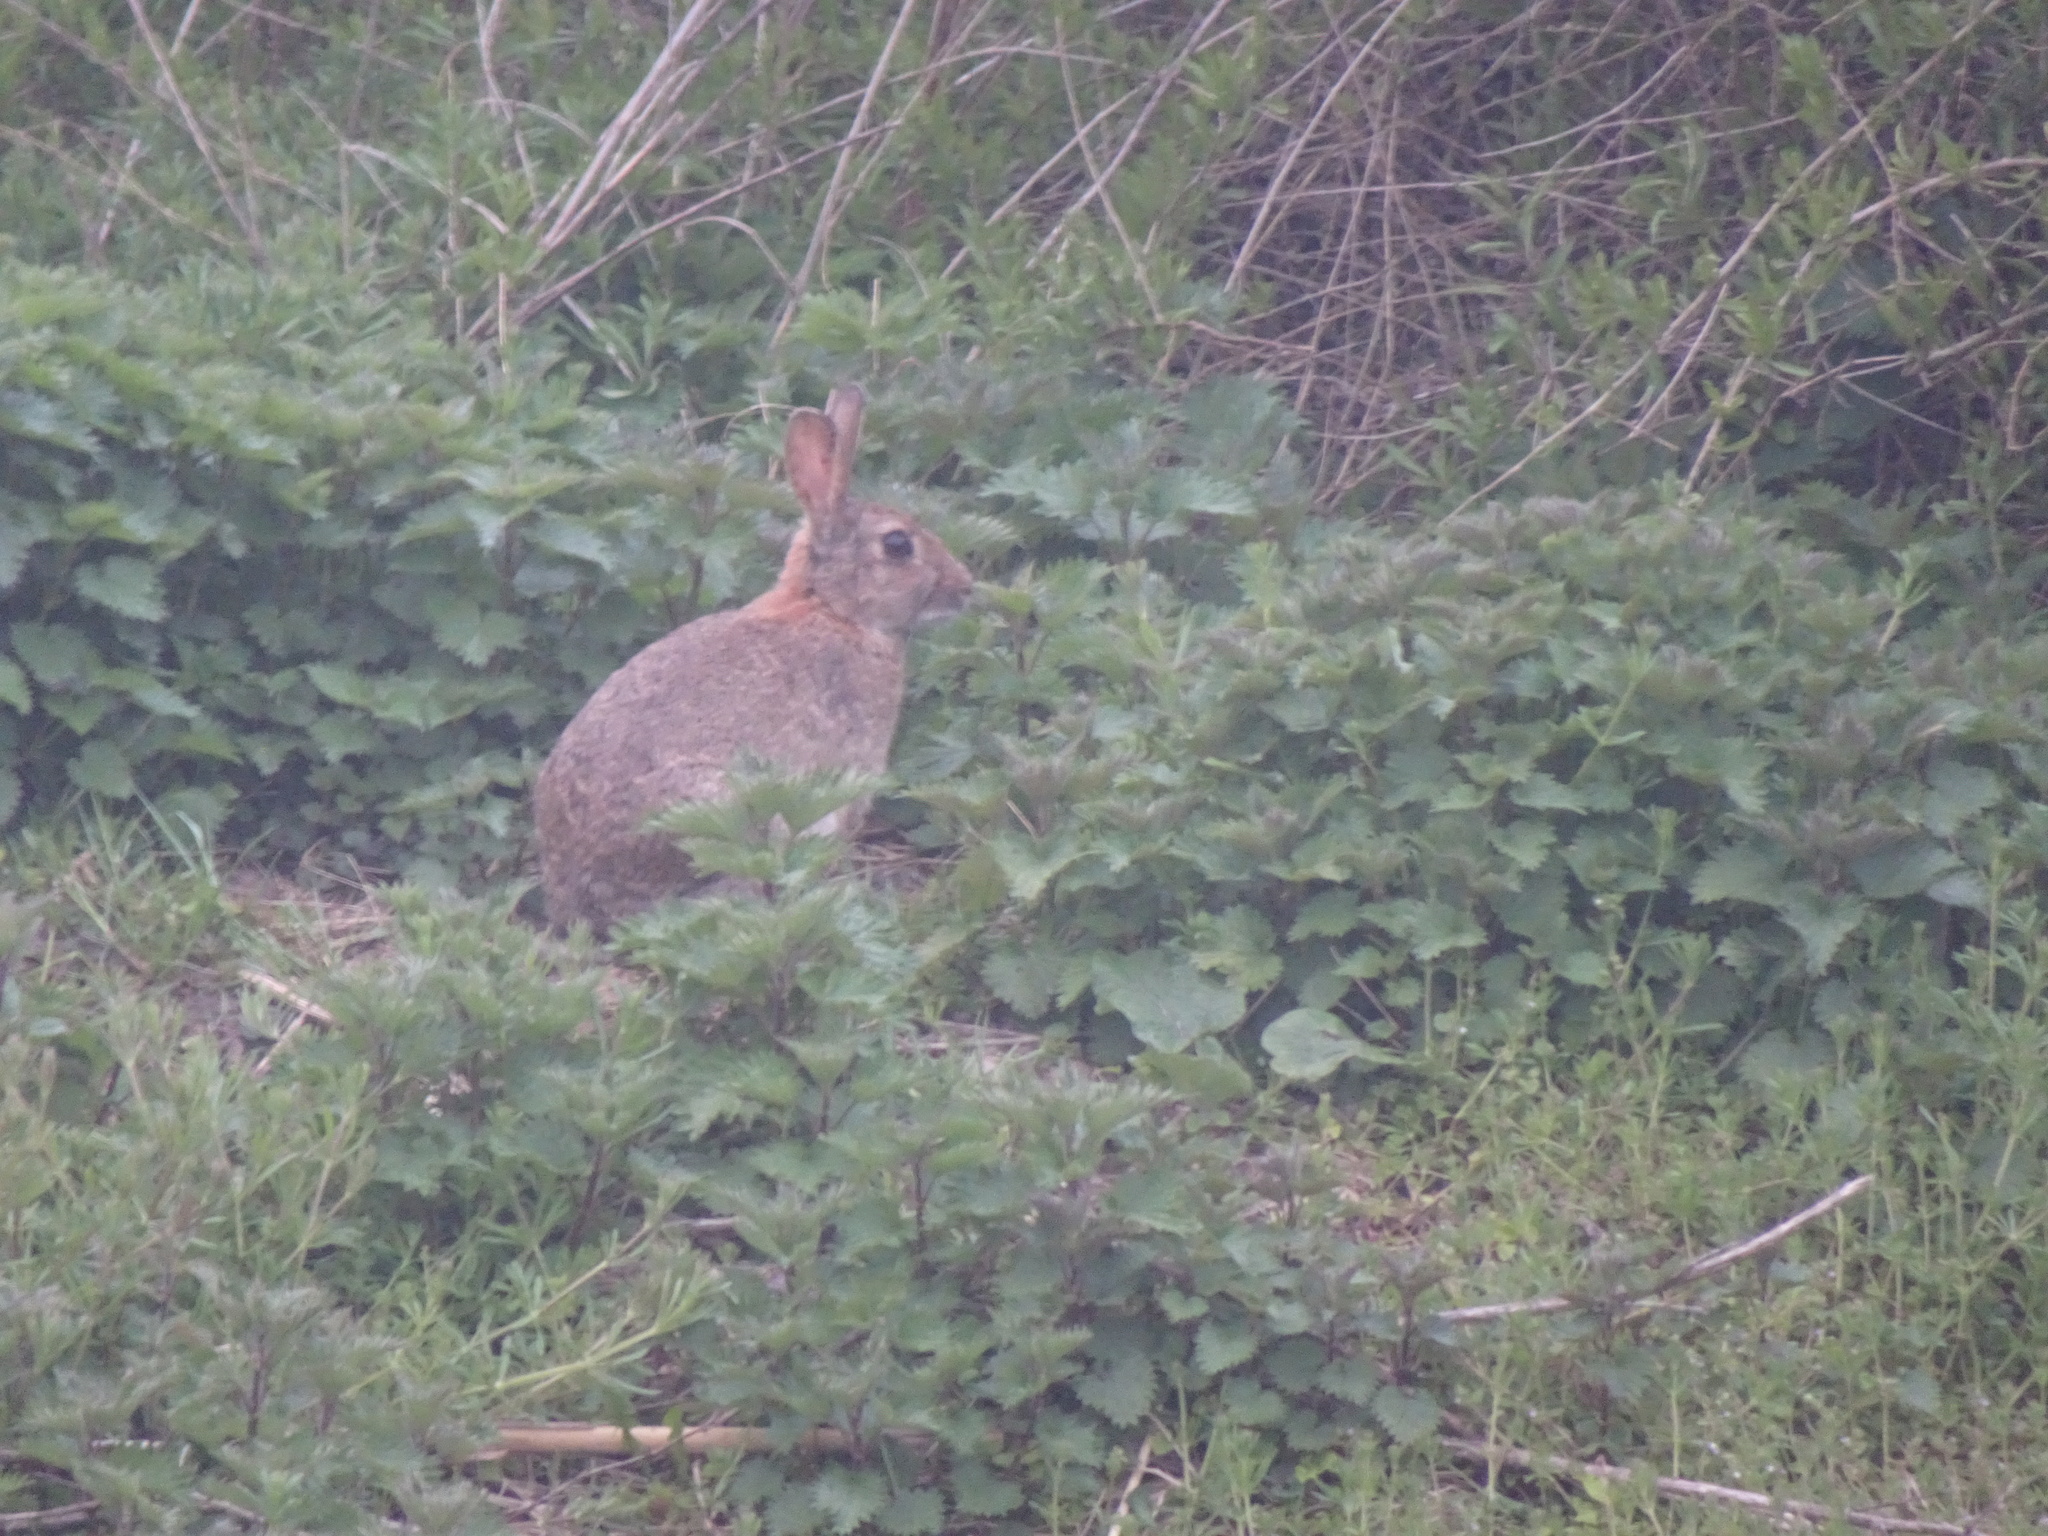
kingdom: Animalia
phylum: Chordata
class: Mammalia
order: Lagomorpha
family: Leporidae
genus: Oryctolagus
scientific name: Oryctolagus cuniculus
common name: European rabbit
